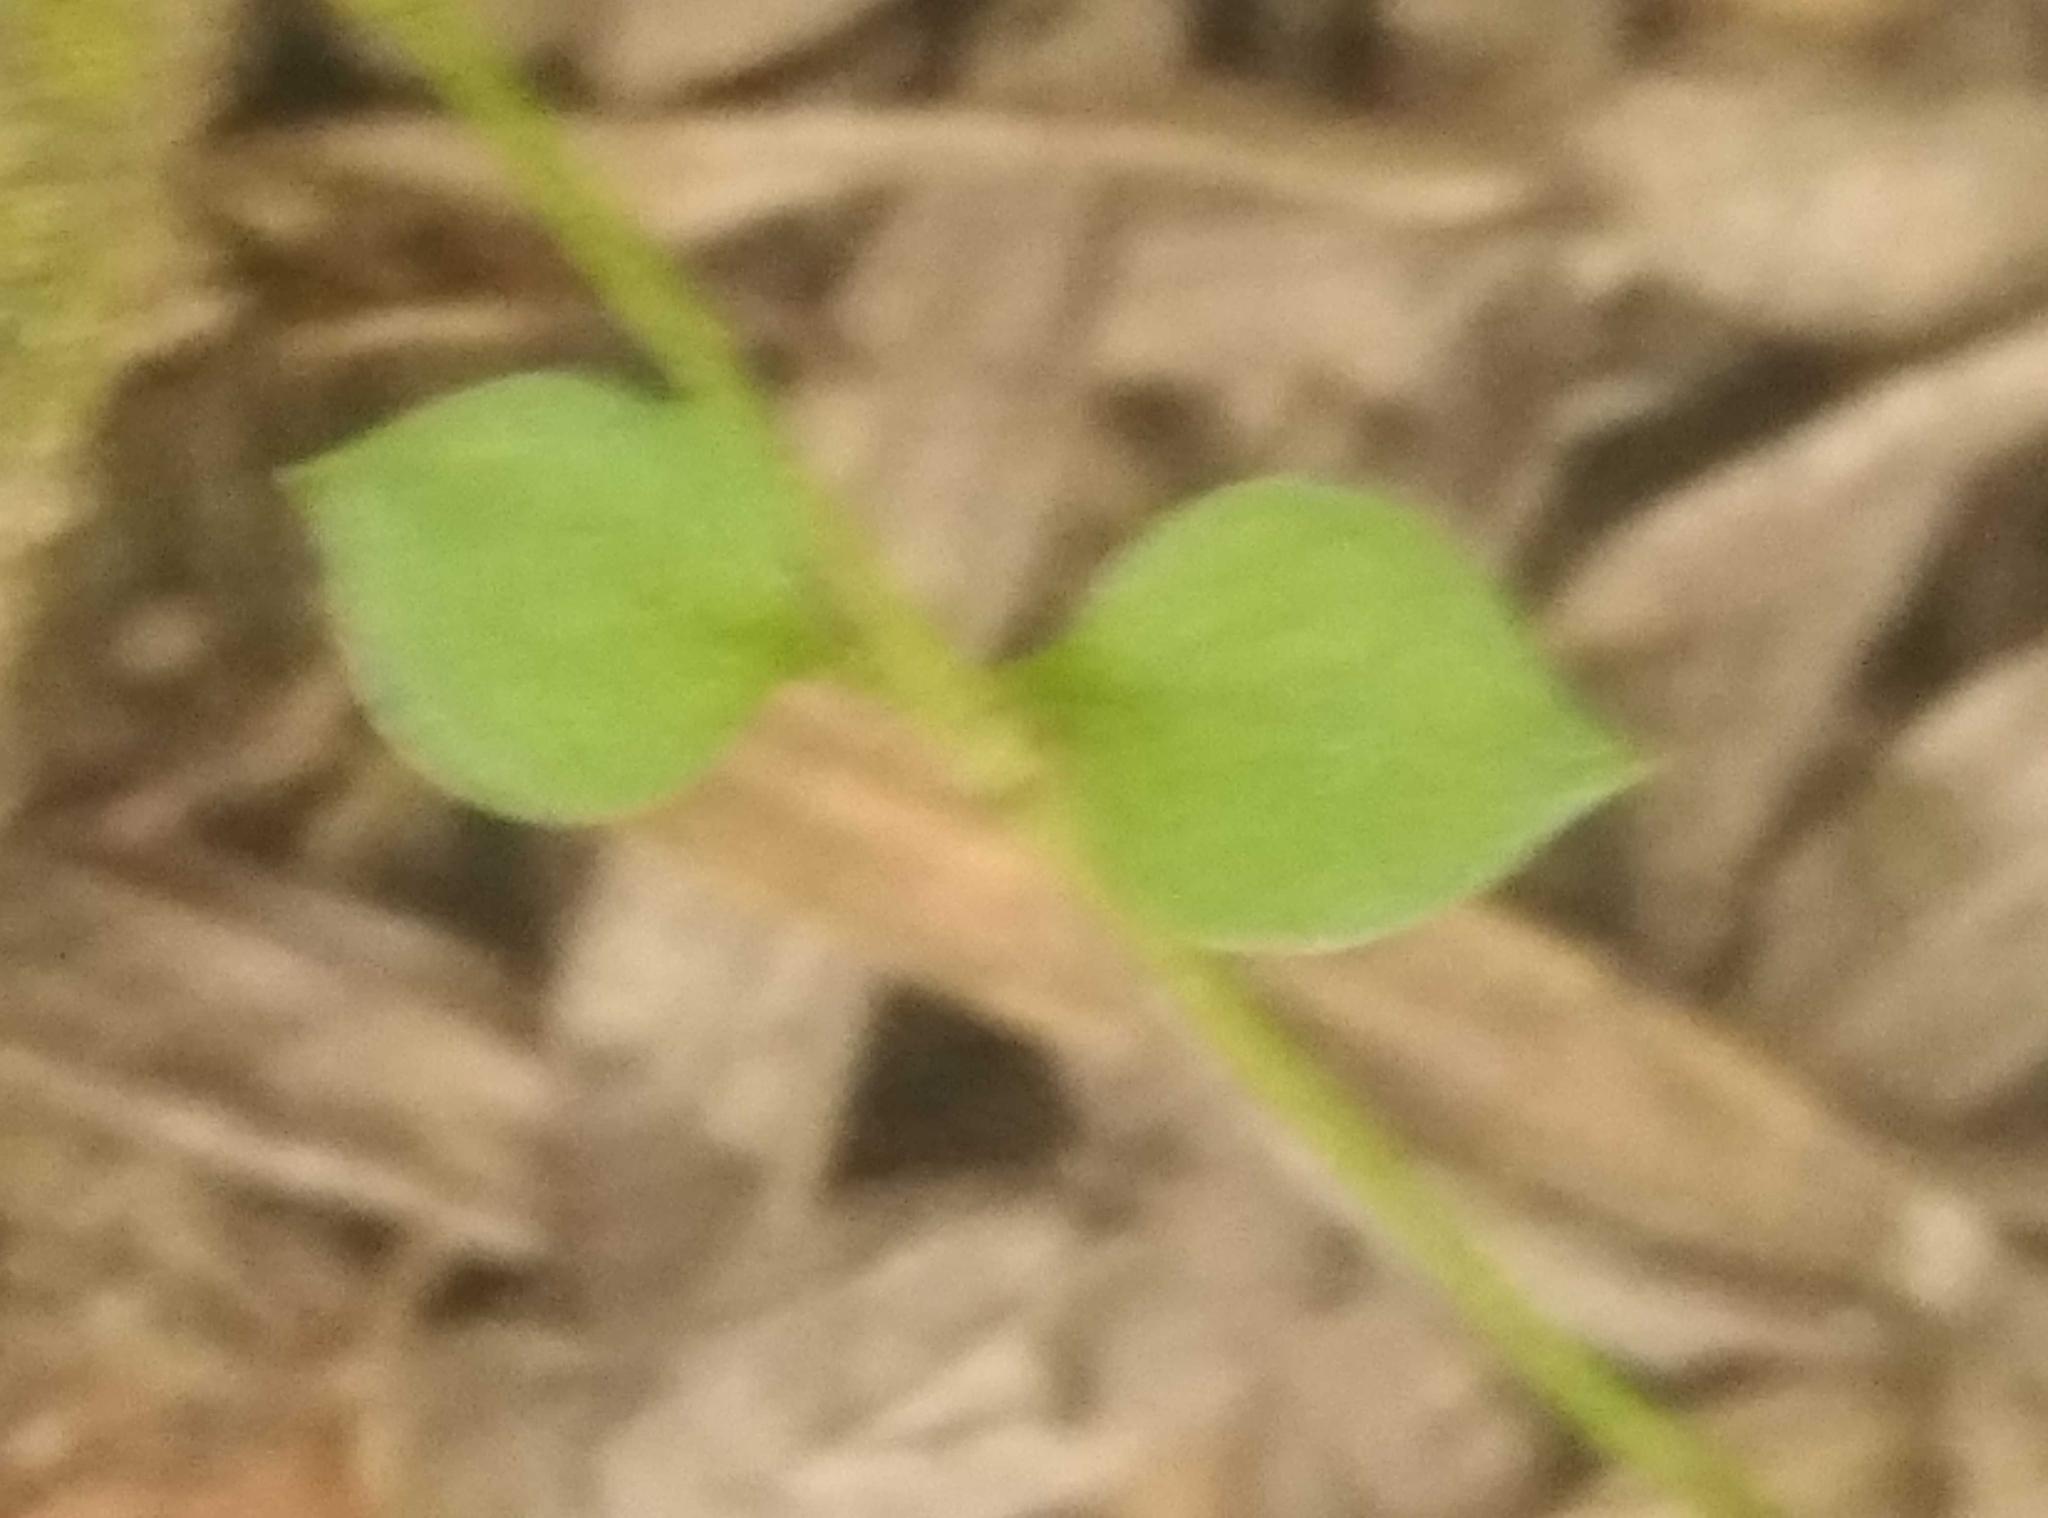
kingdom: Plantae
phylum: Tracheophyta
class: Magnoliopsida
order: Caryophyllales
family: Caryophyllaceae
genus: Stellaria
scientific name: Stellaria parviflora
